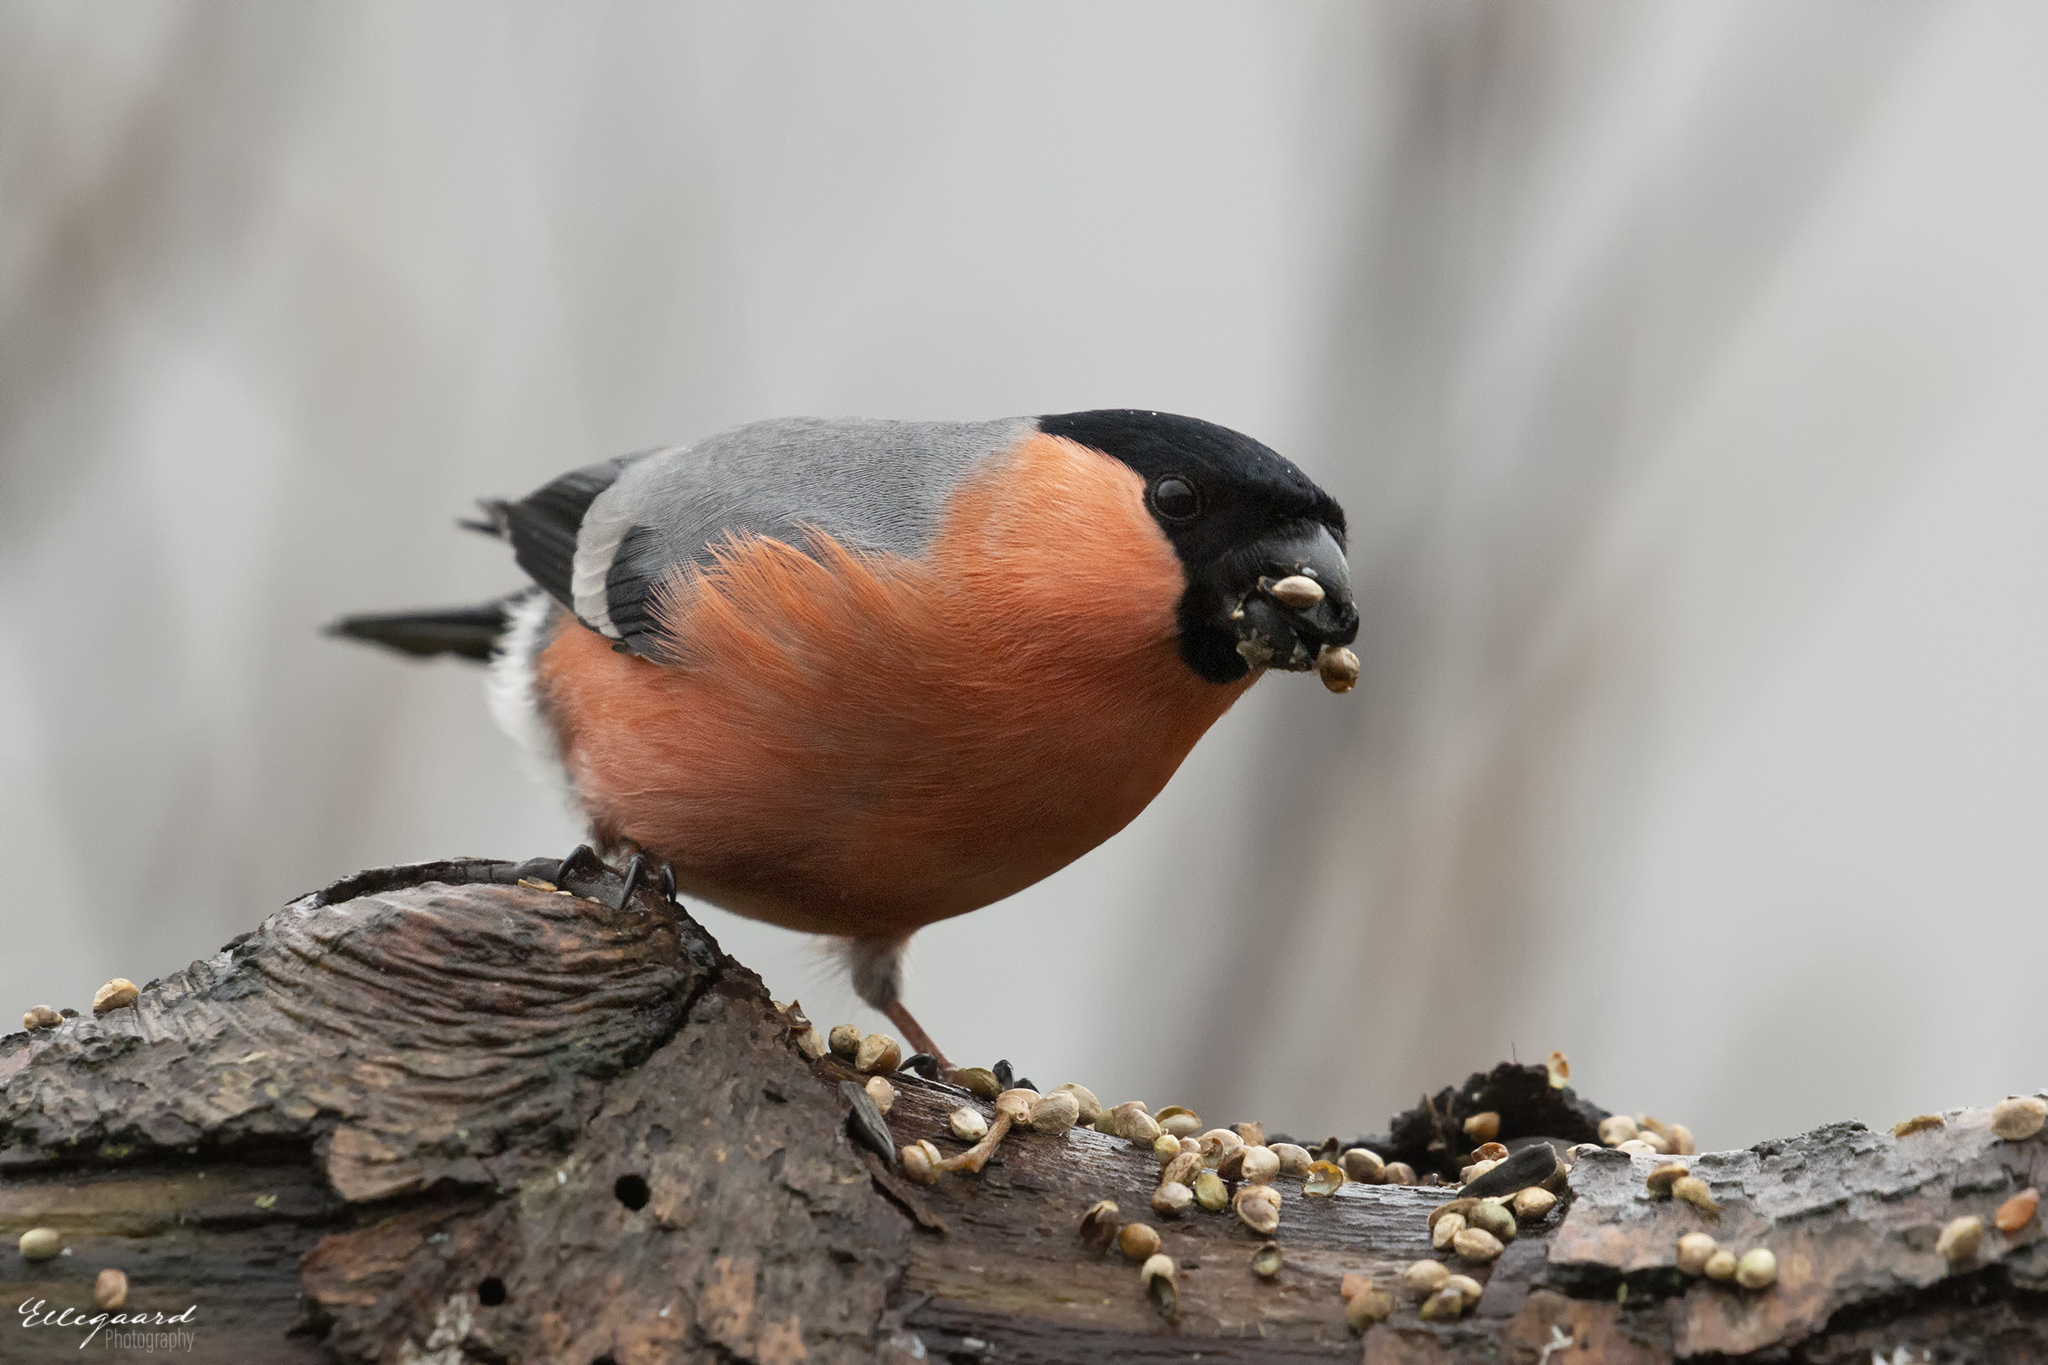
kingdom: Animalia
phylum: Chordata
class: Aves
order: Passeriformes
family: Fringillidae
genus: Pyrrhula
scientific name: Pyrrhula pyrrhula
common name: Eurasian bullfinch
